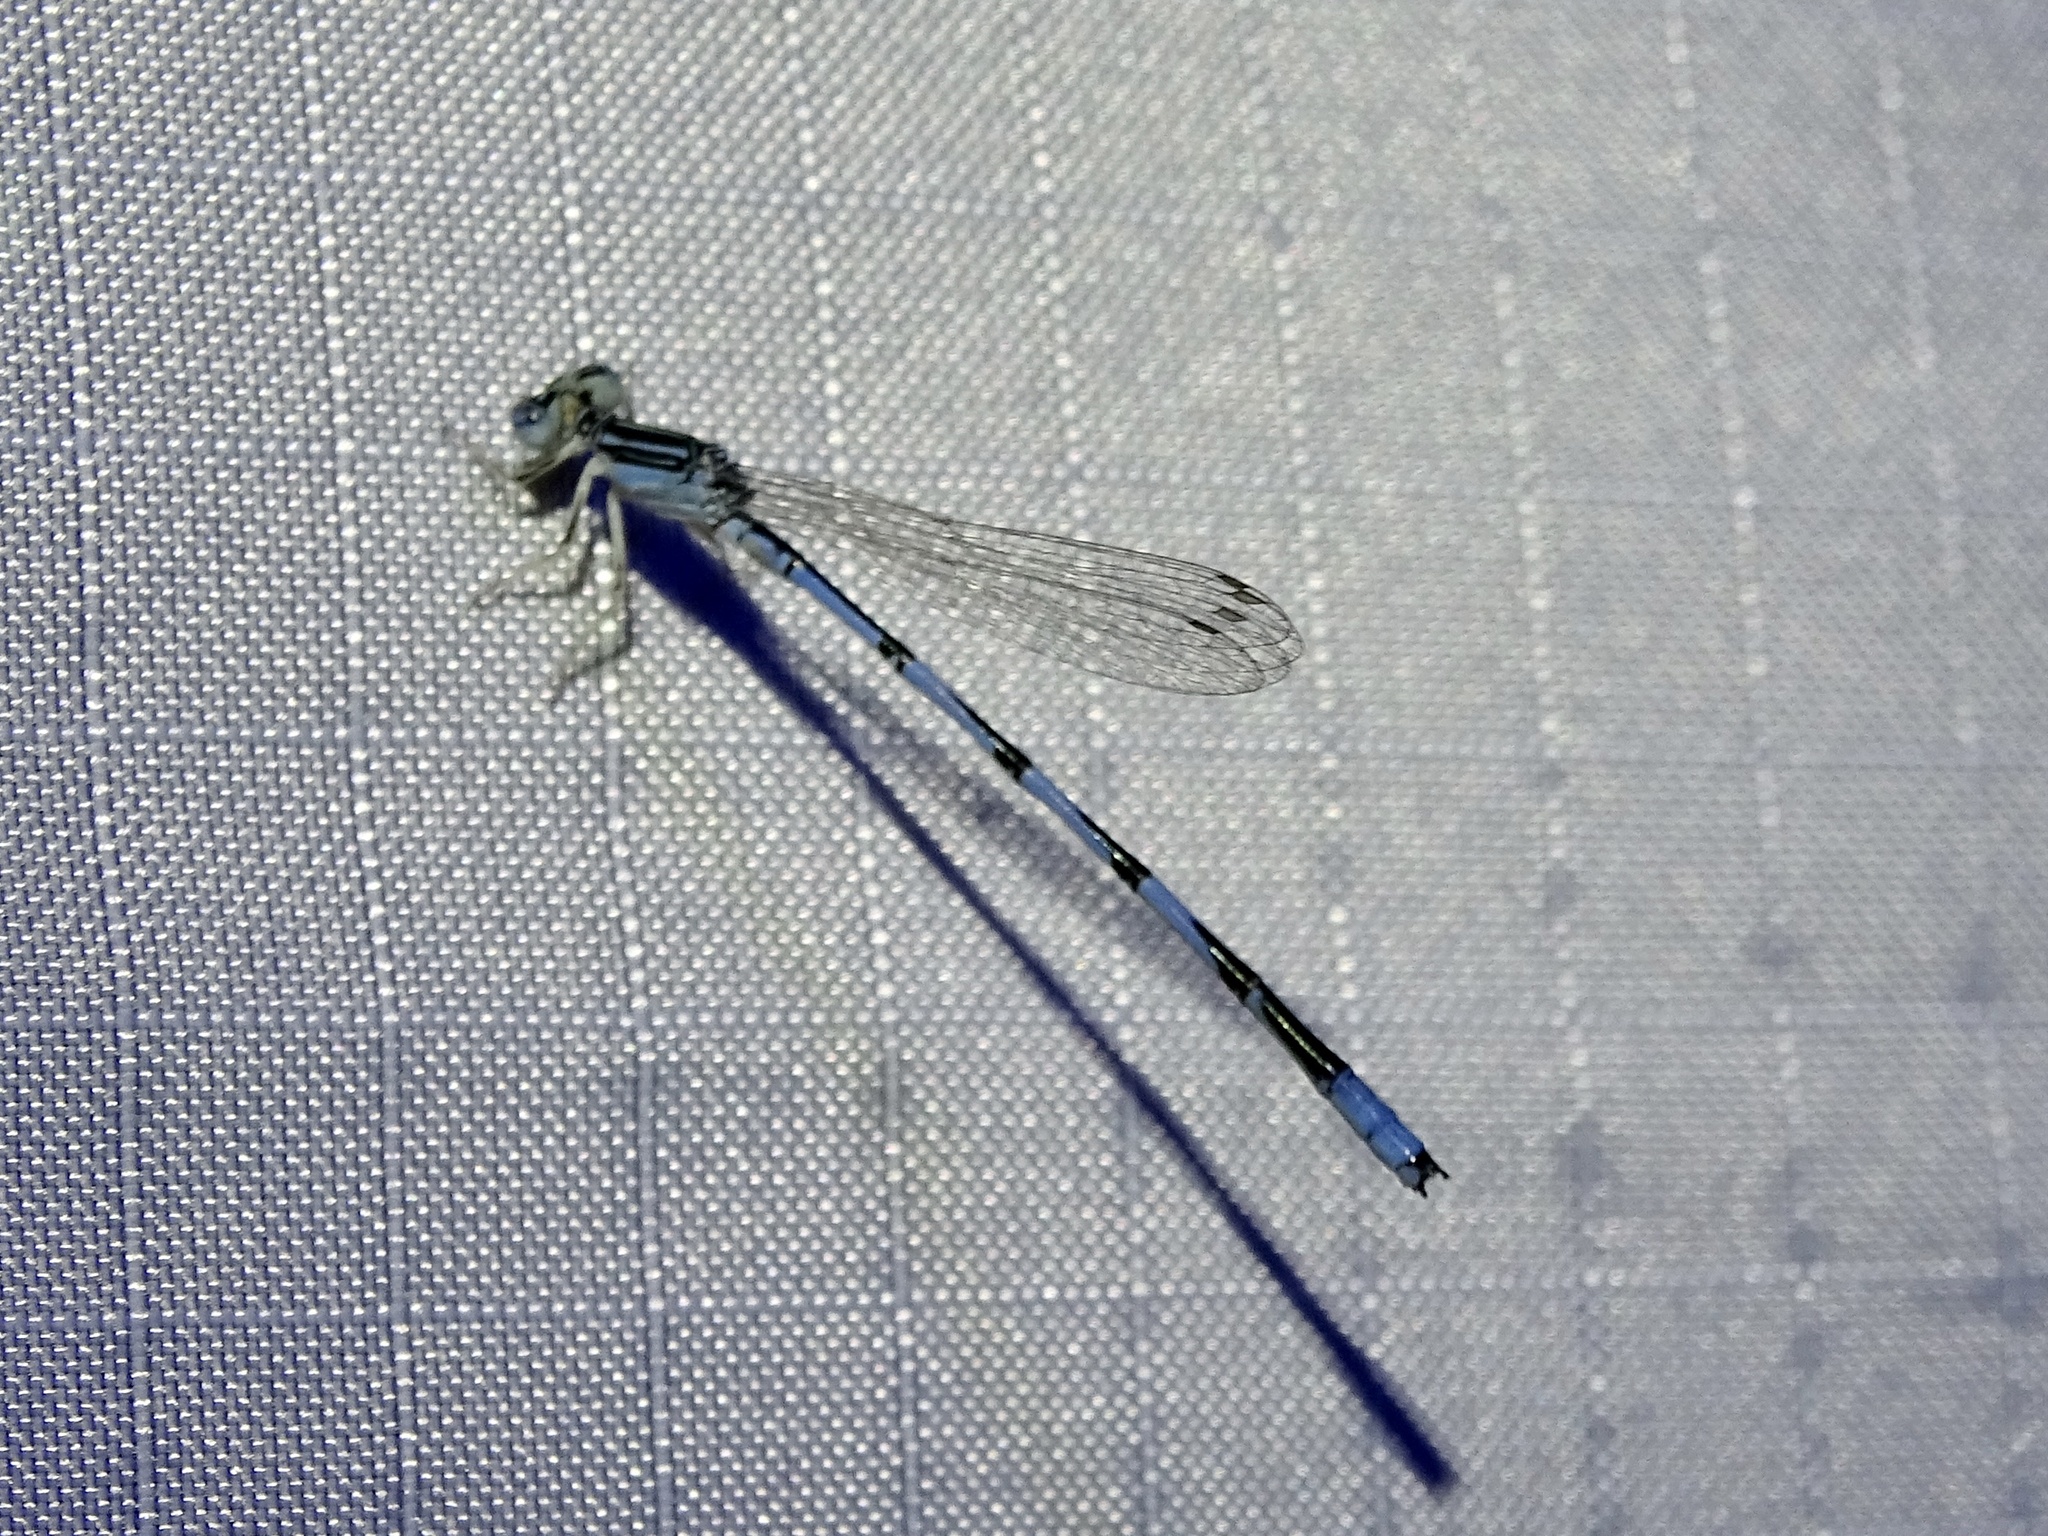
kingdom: Animalia
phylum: Arthropoda
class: Insecta
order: Odonata
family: Coenagrionidae
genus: Enallagma
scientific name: Enallagma basidens
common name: Double-striped bluet
